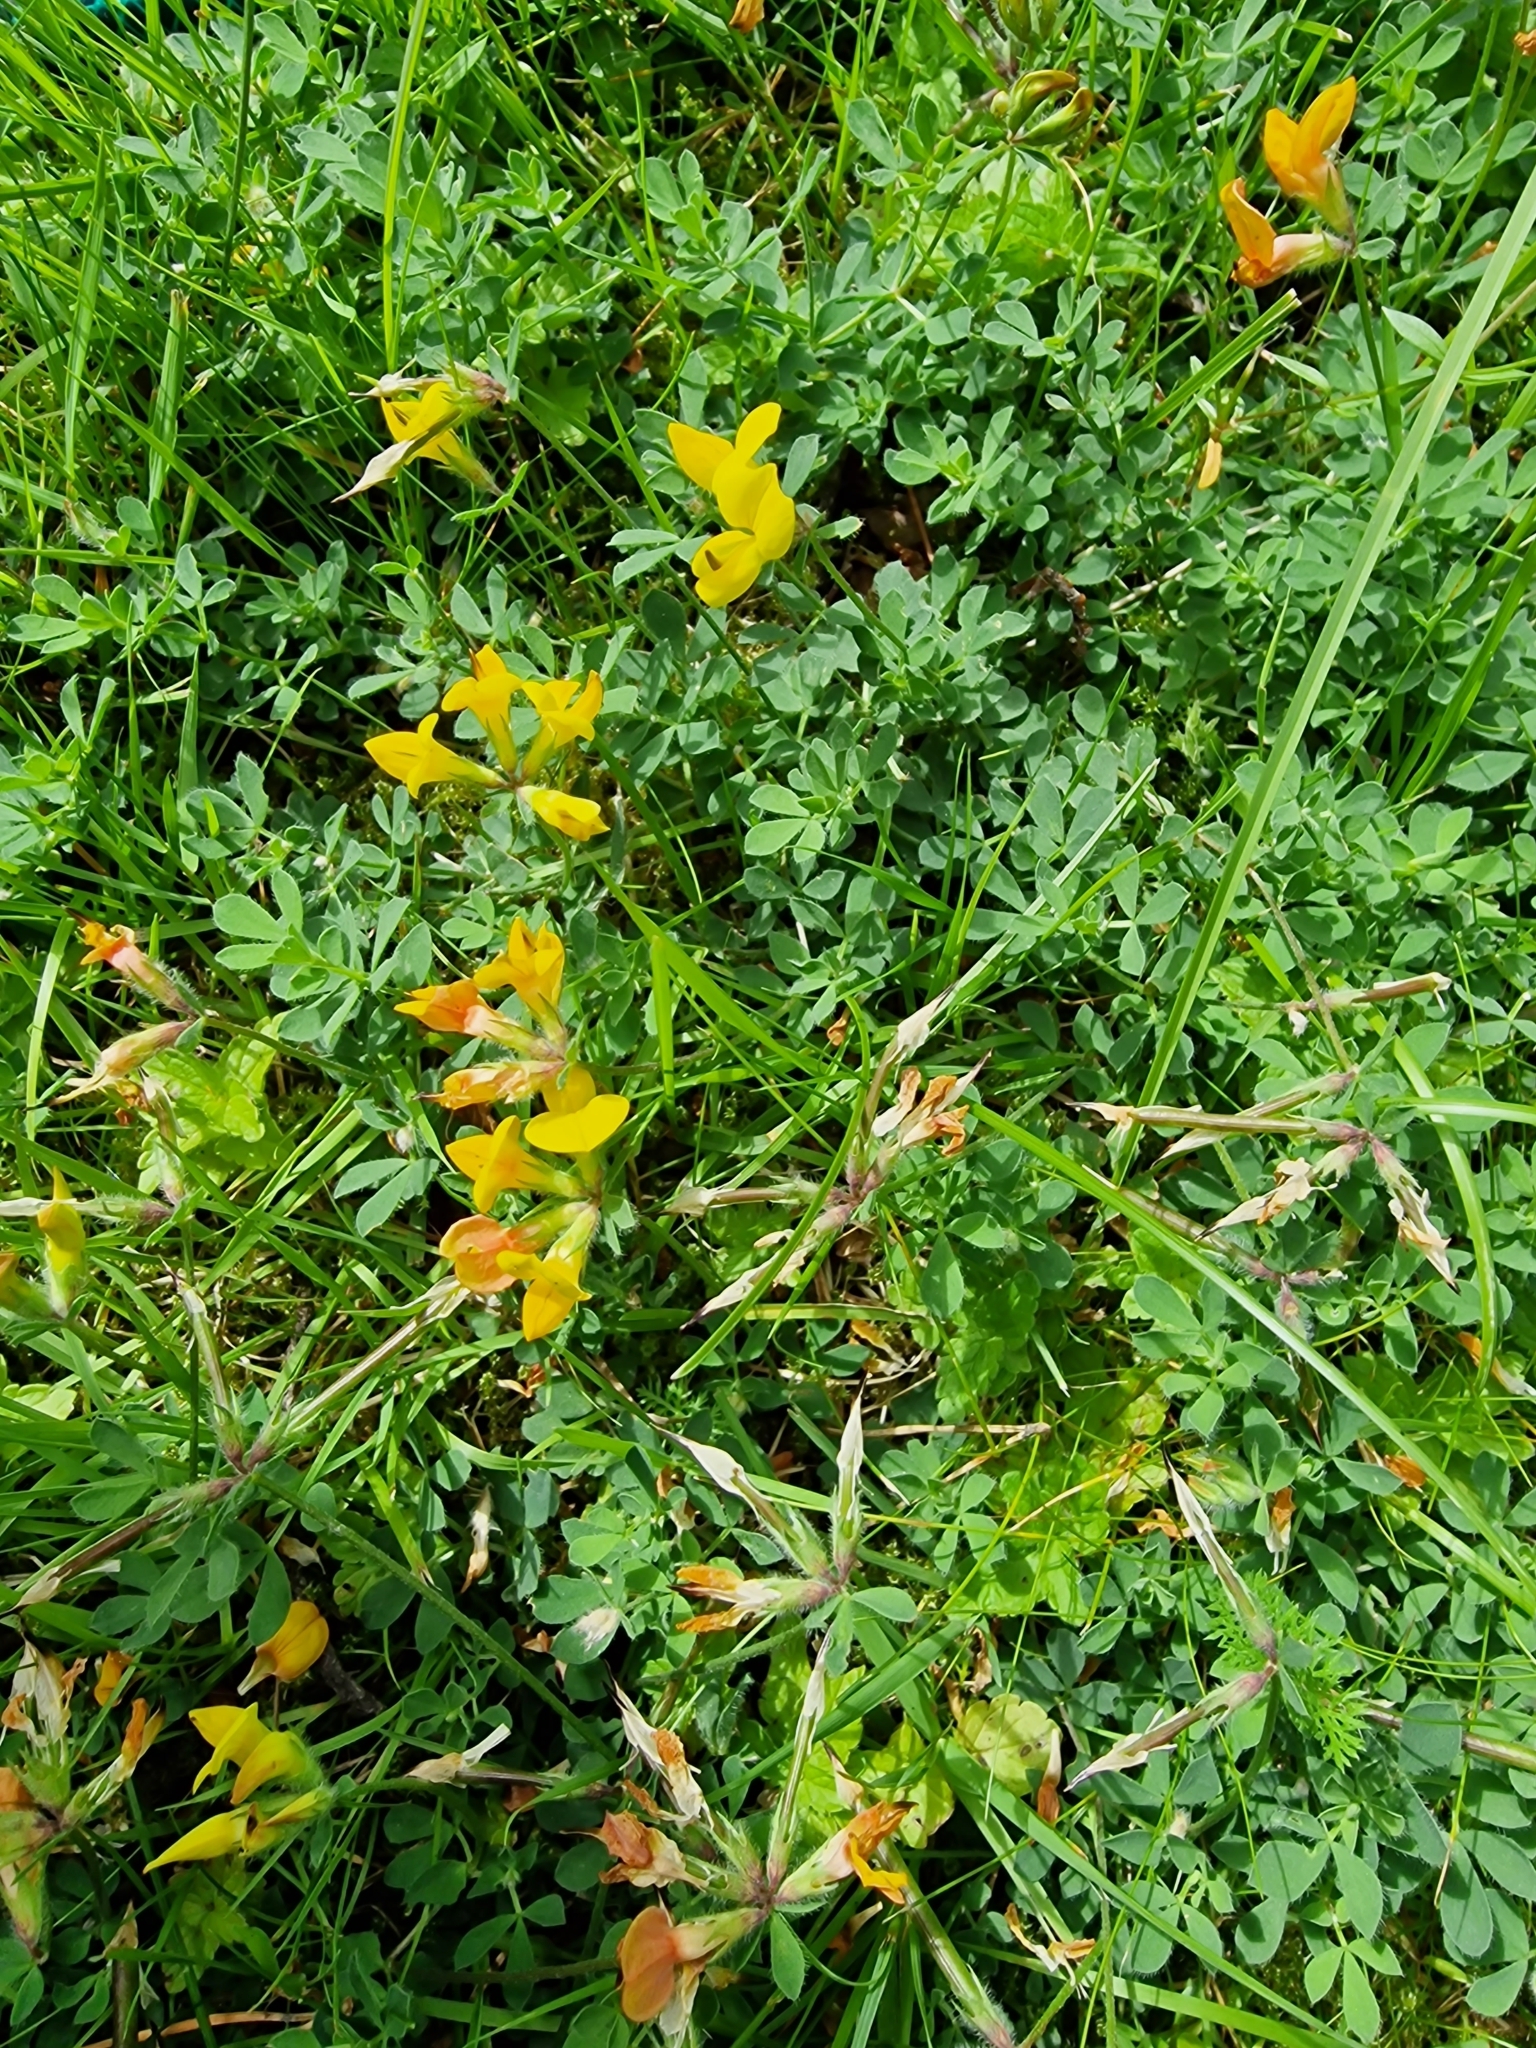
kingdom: Plantae
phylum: Tracheophyta
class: Magnoliopsida
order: Fabales
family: Fabaceae
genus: Lotus
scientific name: Lotus corniculatus
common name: Common bird's-foot-trefoil
